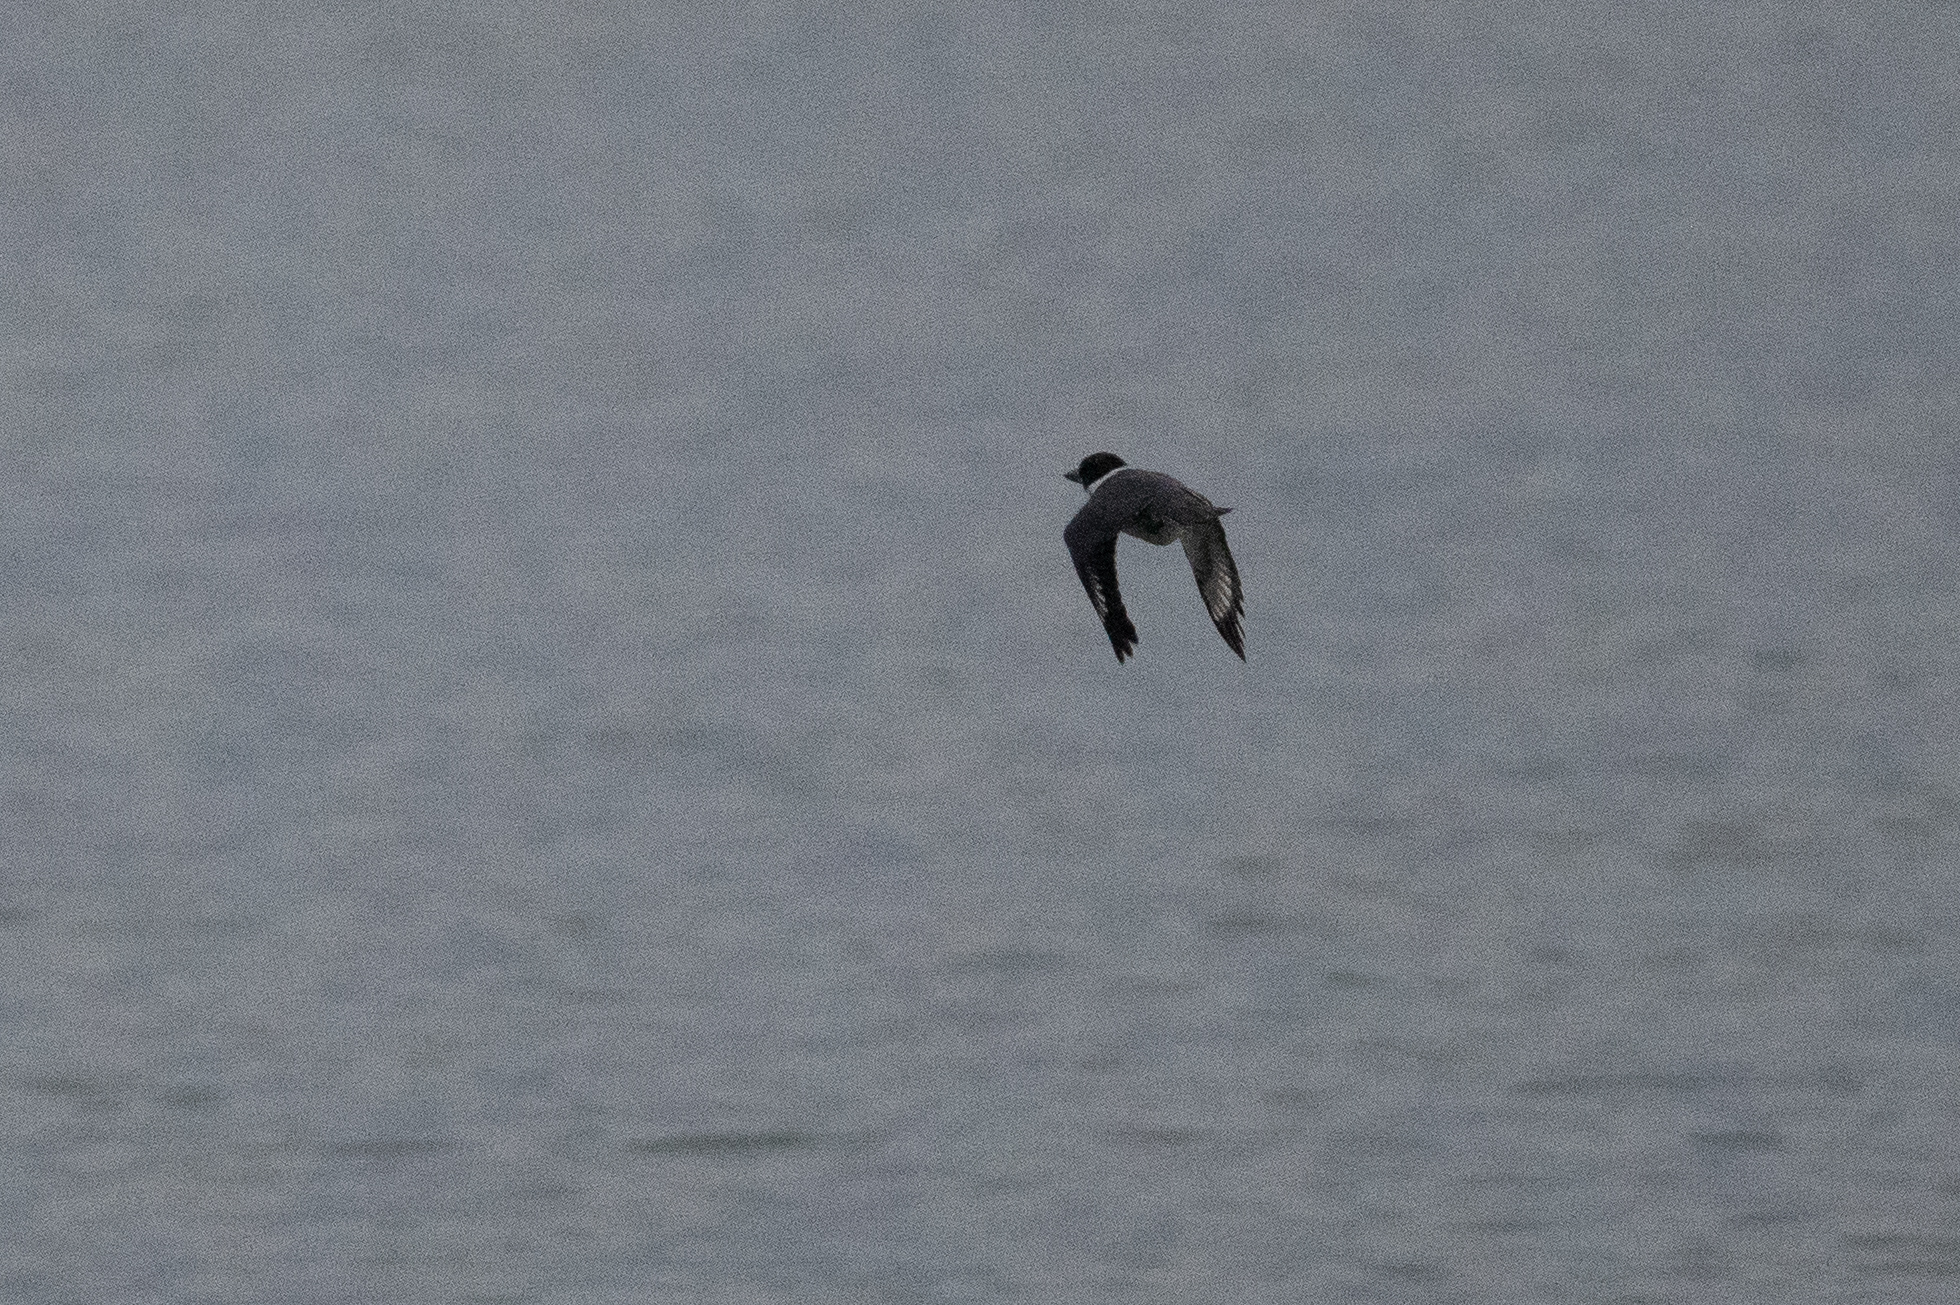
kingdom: Animalia
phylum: Chordata
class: Aves
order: Coraciiformes
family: Alcedinidae
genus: Megaceryle
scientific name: Megaceryle alcyon
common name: Belted kingfisher
